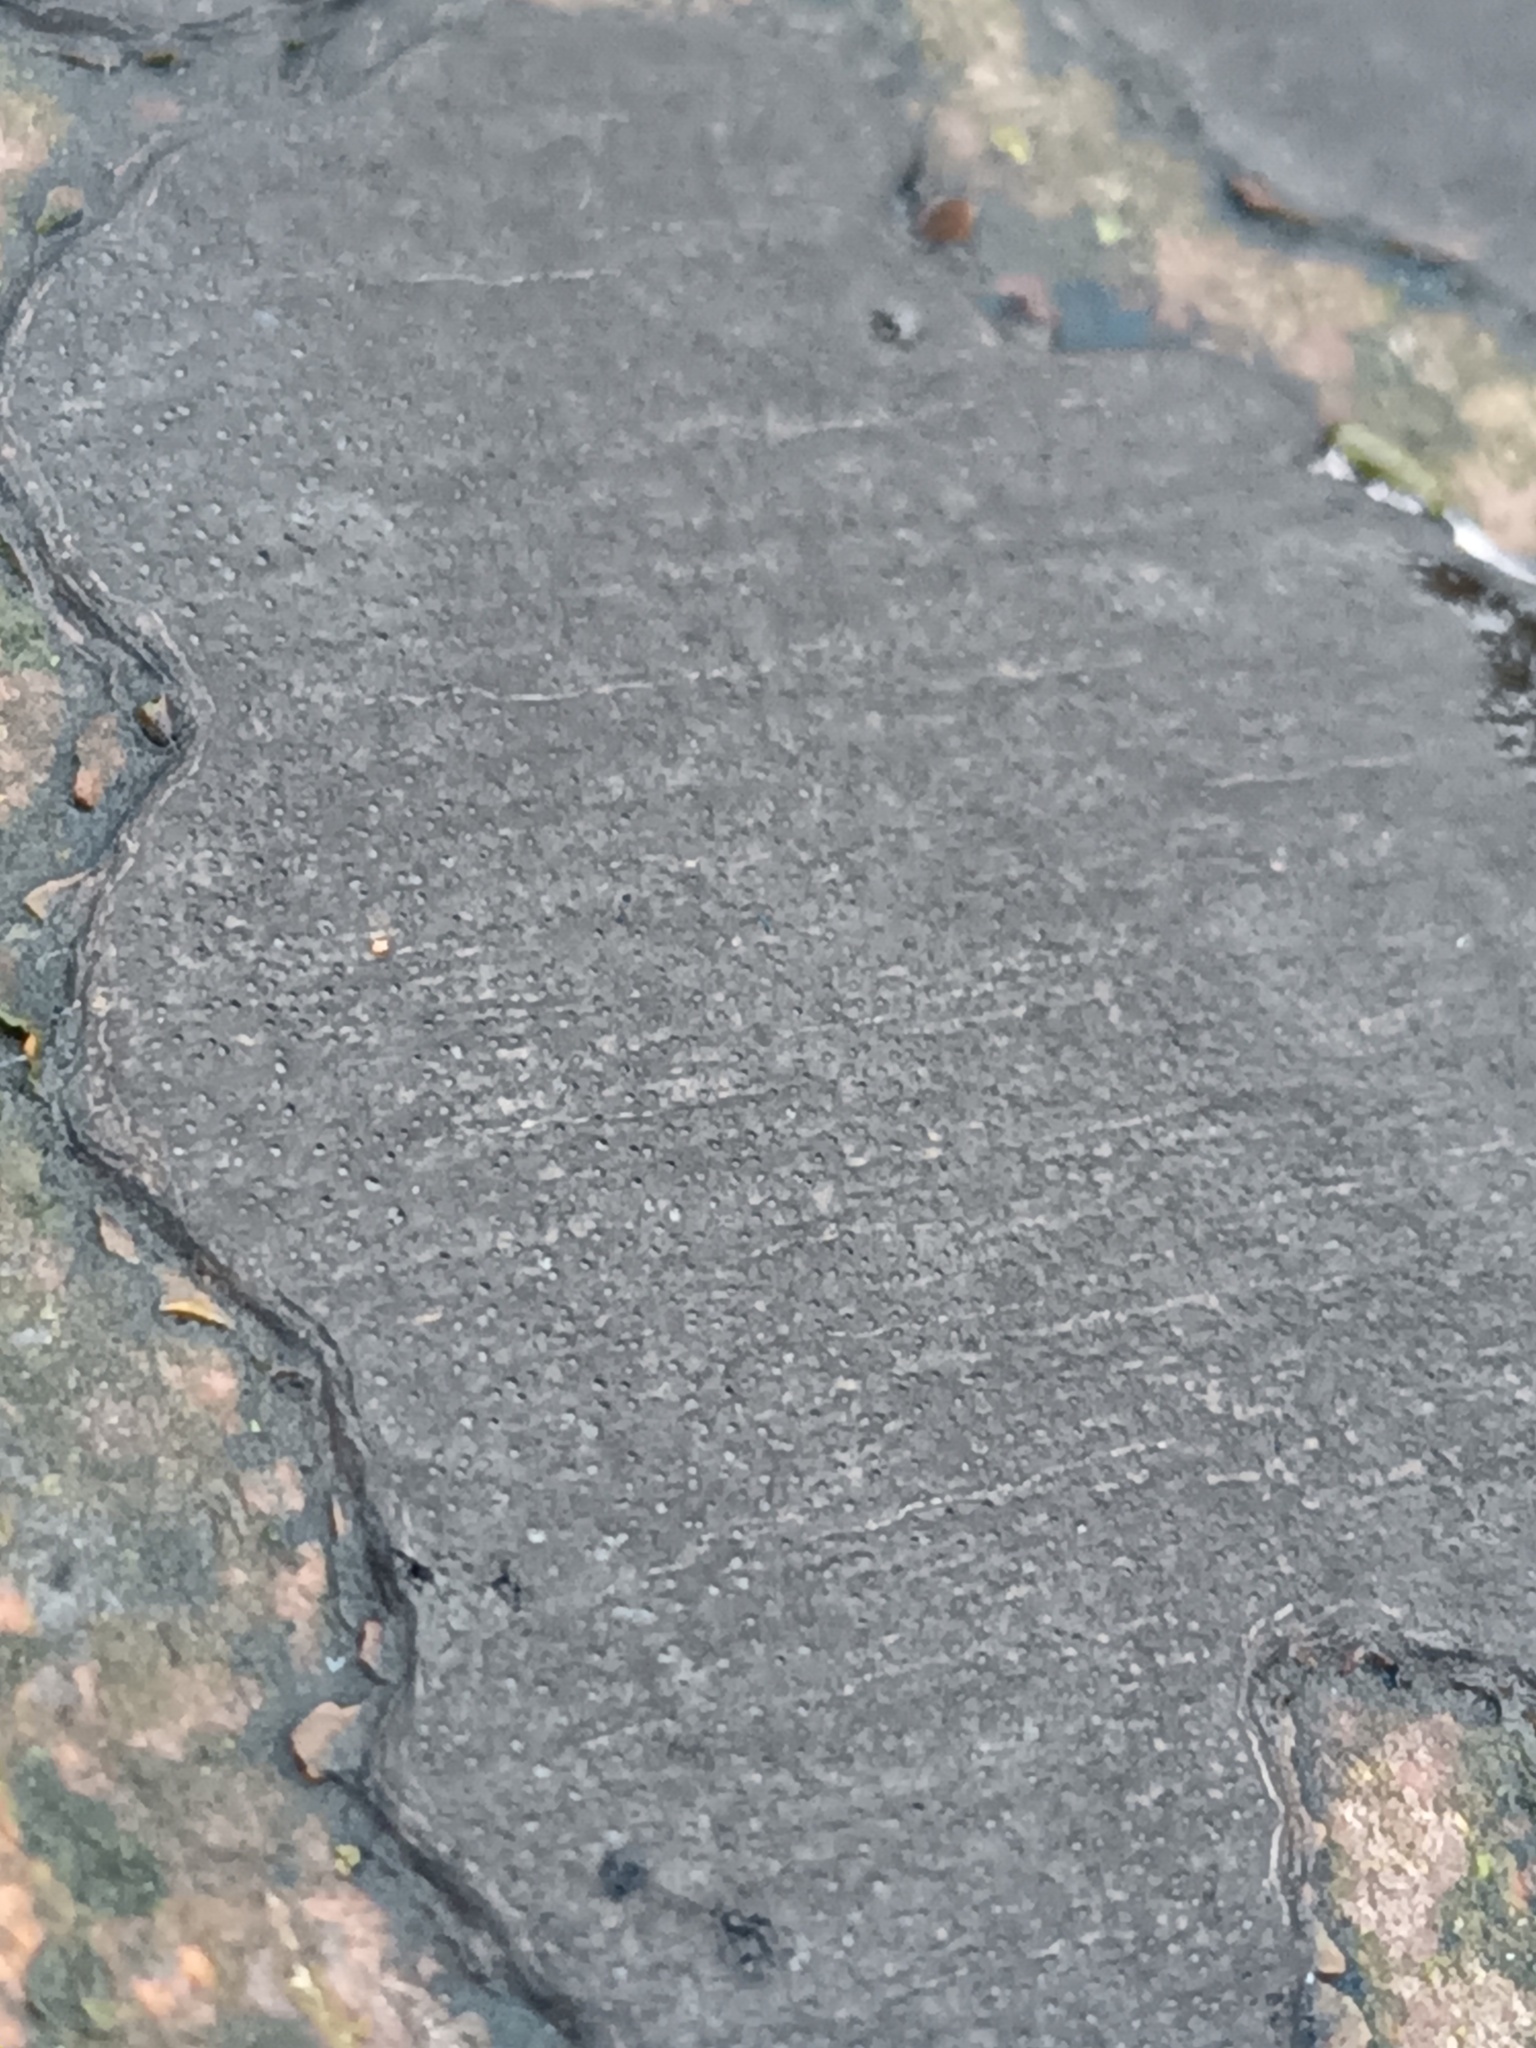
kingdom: Fungi
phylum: Ascomycota
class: Sordariomycetes
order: Xylariales
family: Graphostromataceae
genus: Biscogniauxia
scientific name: Biscogniauxia nummularia
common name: Beech tarcrust
